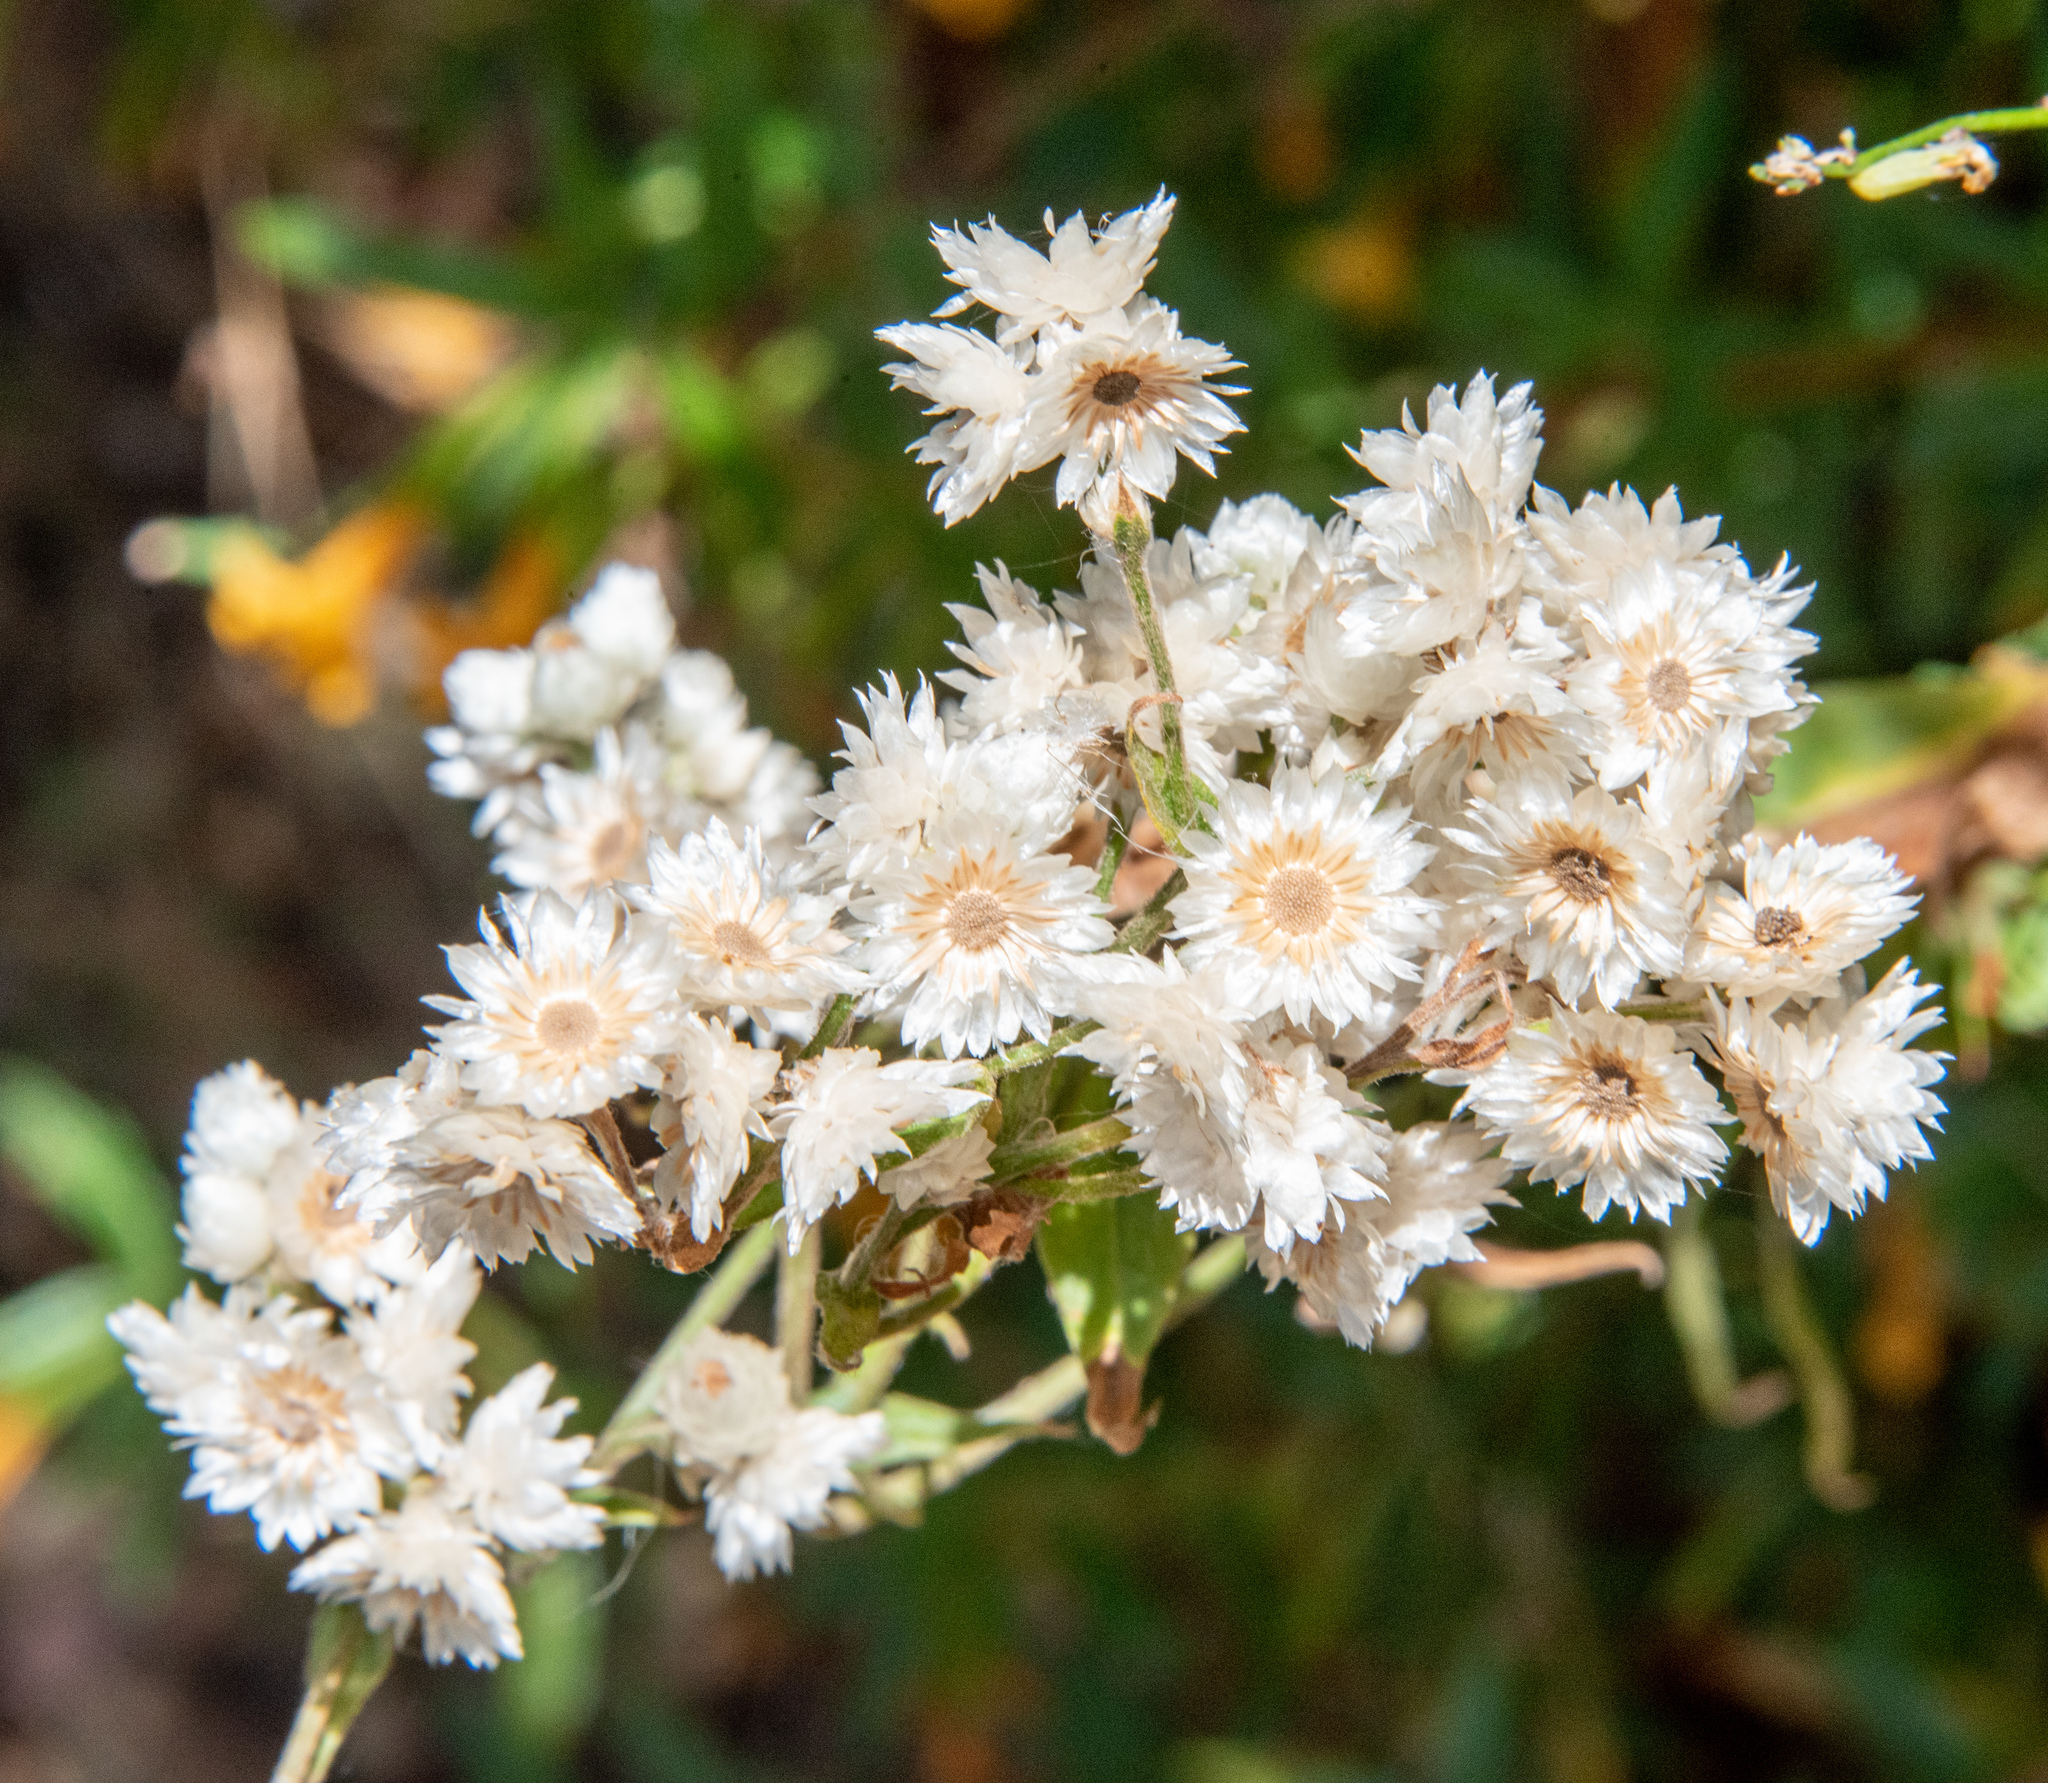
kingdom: Plantae
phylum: Tracheophyta
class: Magnoliopsida
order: Asterales
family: Asteraceae
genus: Anaphalis
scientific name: Anaphalis margaritacea
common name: Pearly everlasting
